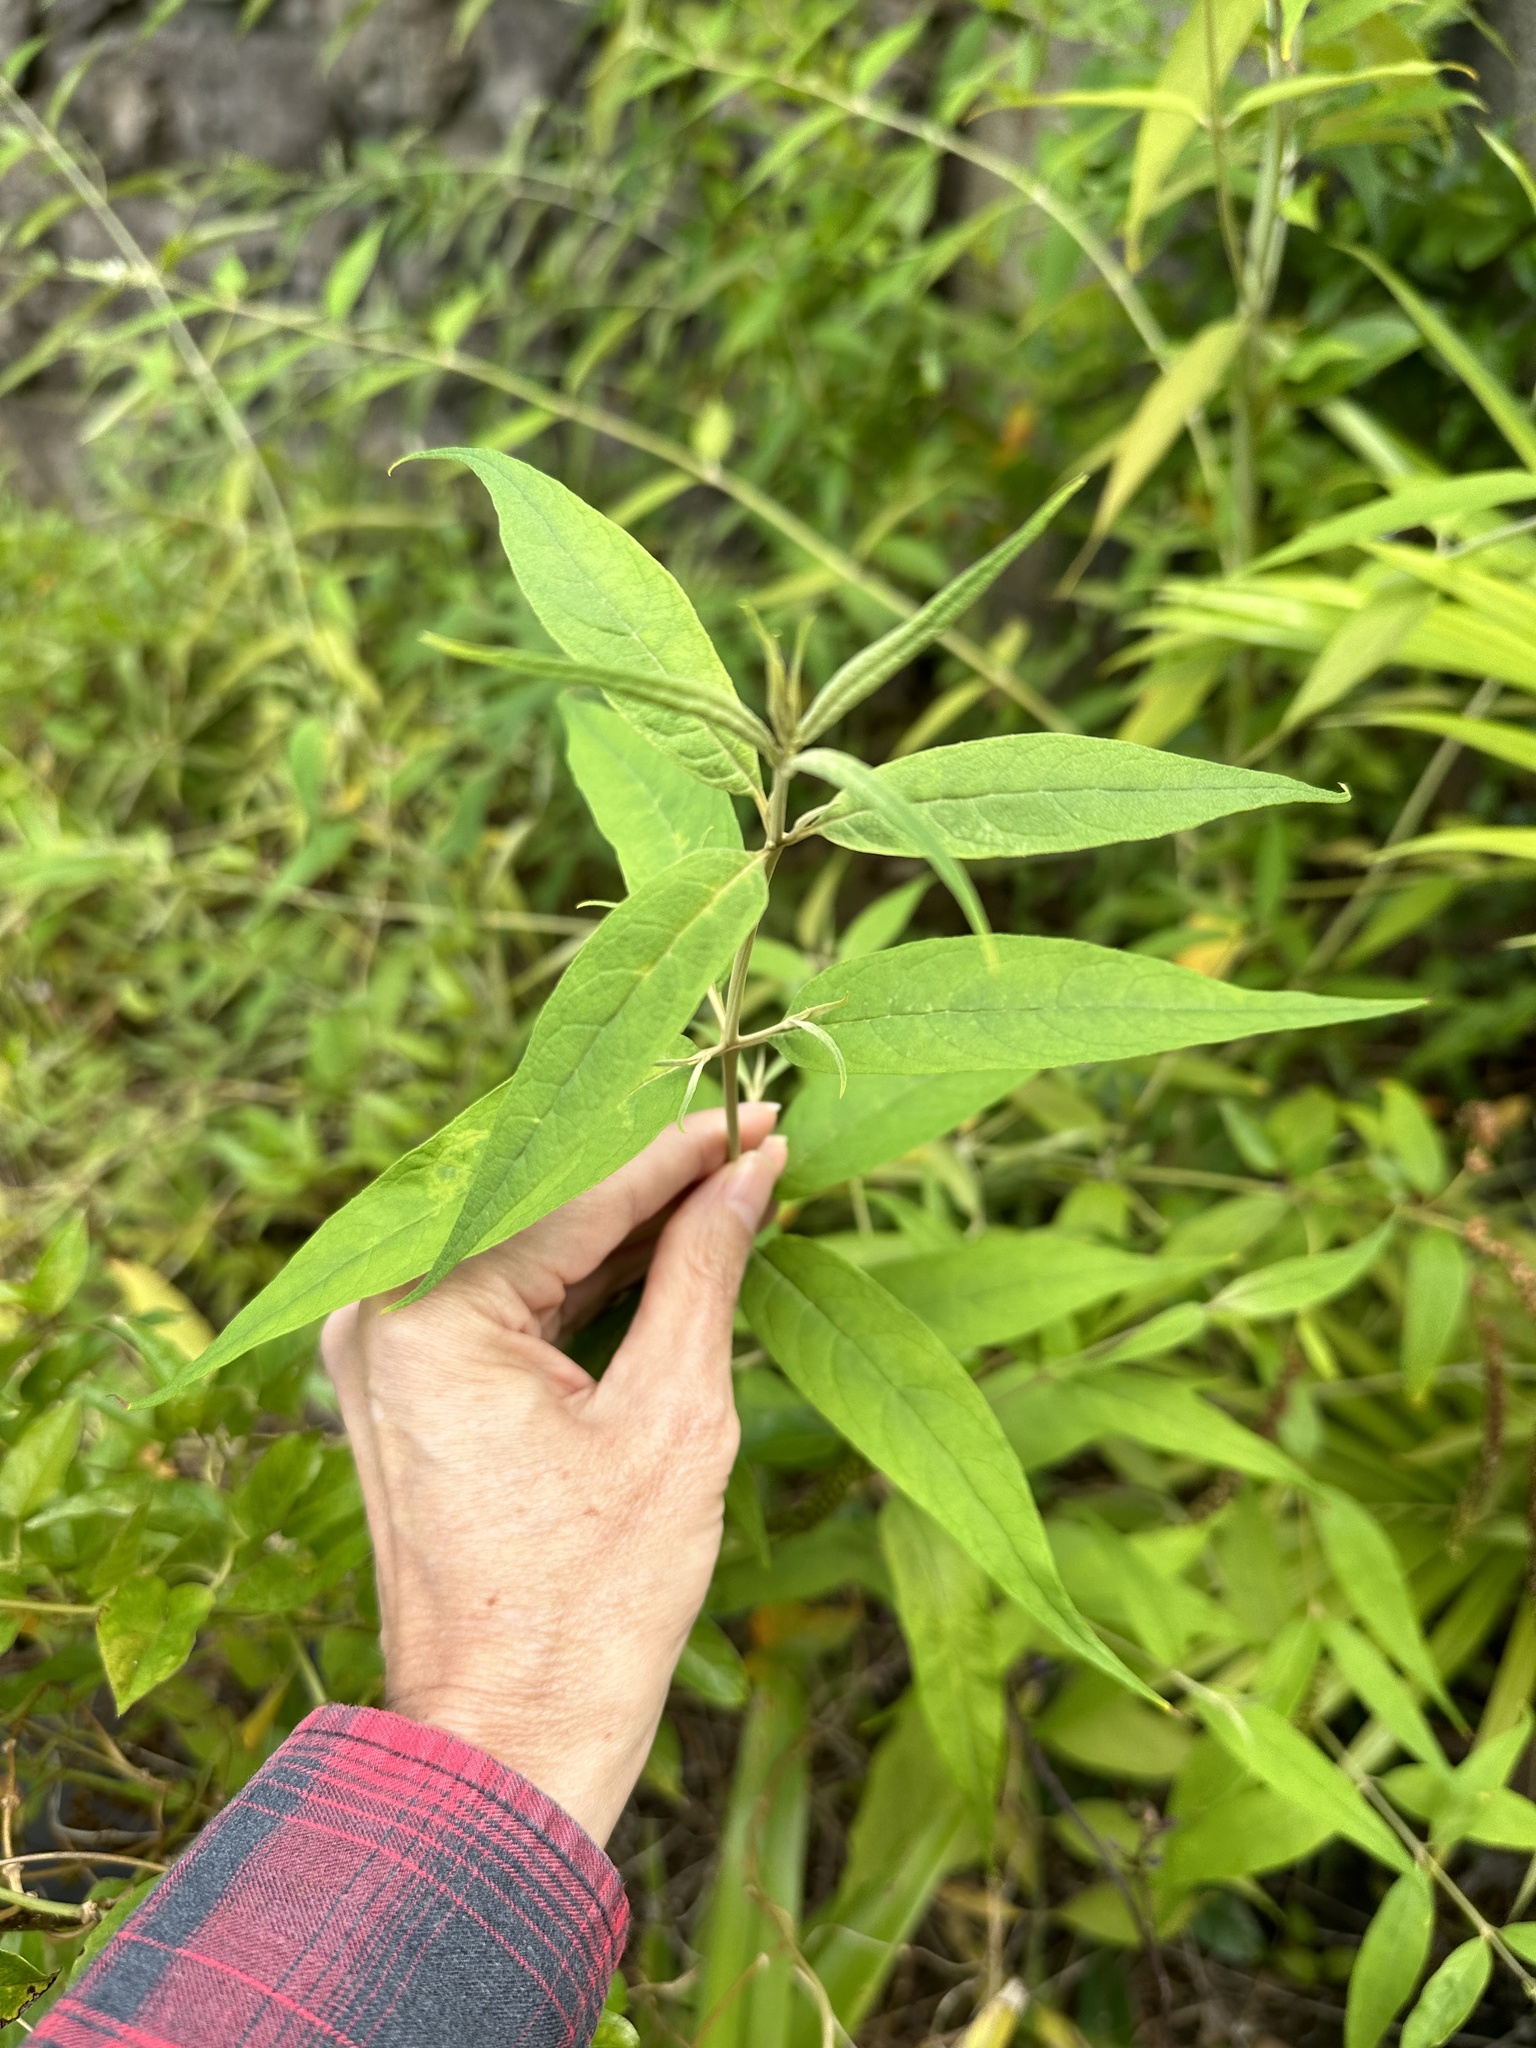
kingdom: Plantae
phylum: Tracheophyta
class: Magnoliopsida
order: Lamiales
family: Scrophulariaceae
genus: Buddleja
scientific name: Buddleja asiatica
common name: Dog tail
